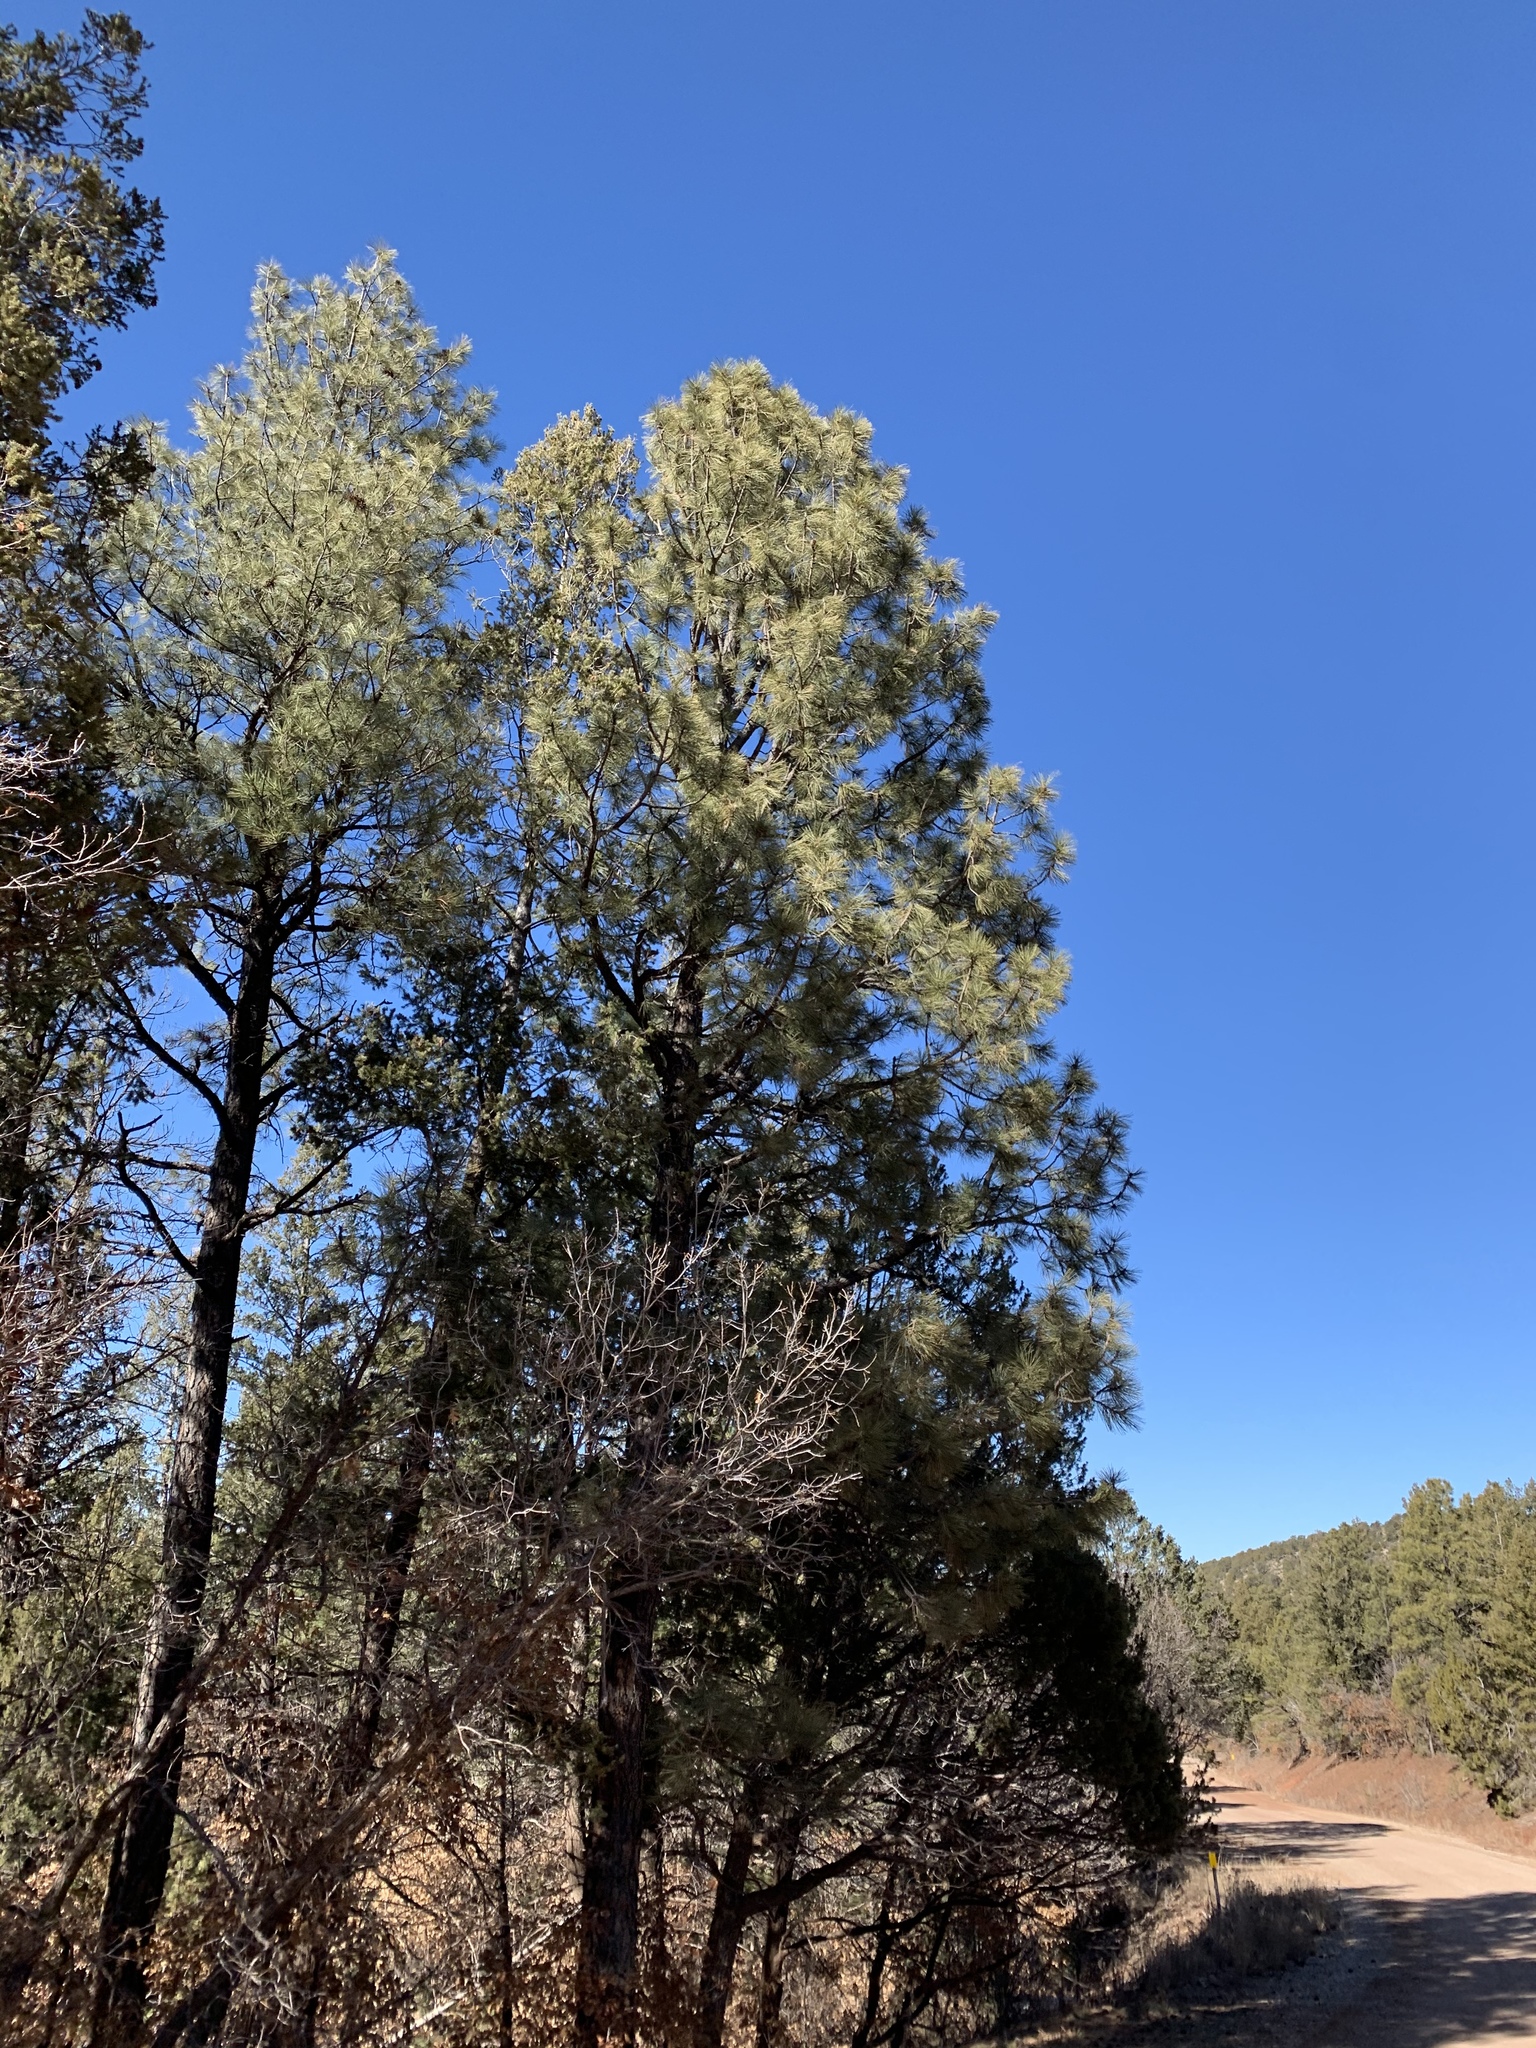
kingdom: Plantae
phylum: Tracheophyta
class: Pinopsida
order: Pinales
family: Pinaceae
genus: Pinus
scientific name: Pinus ponderosa
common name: Western yellow-pine
